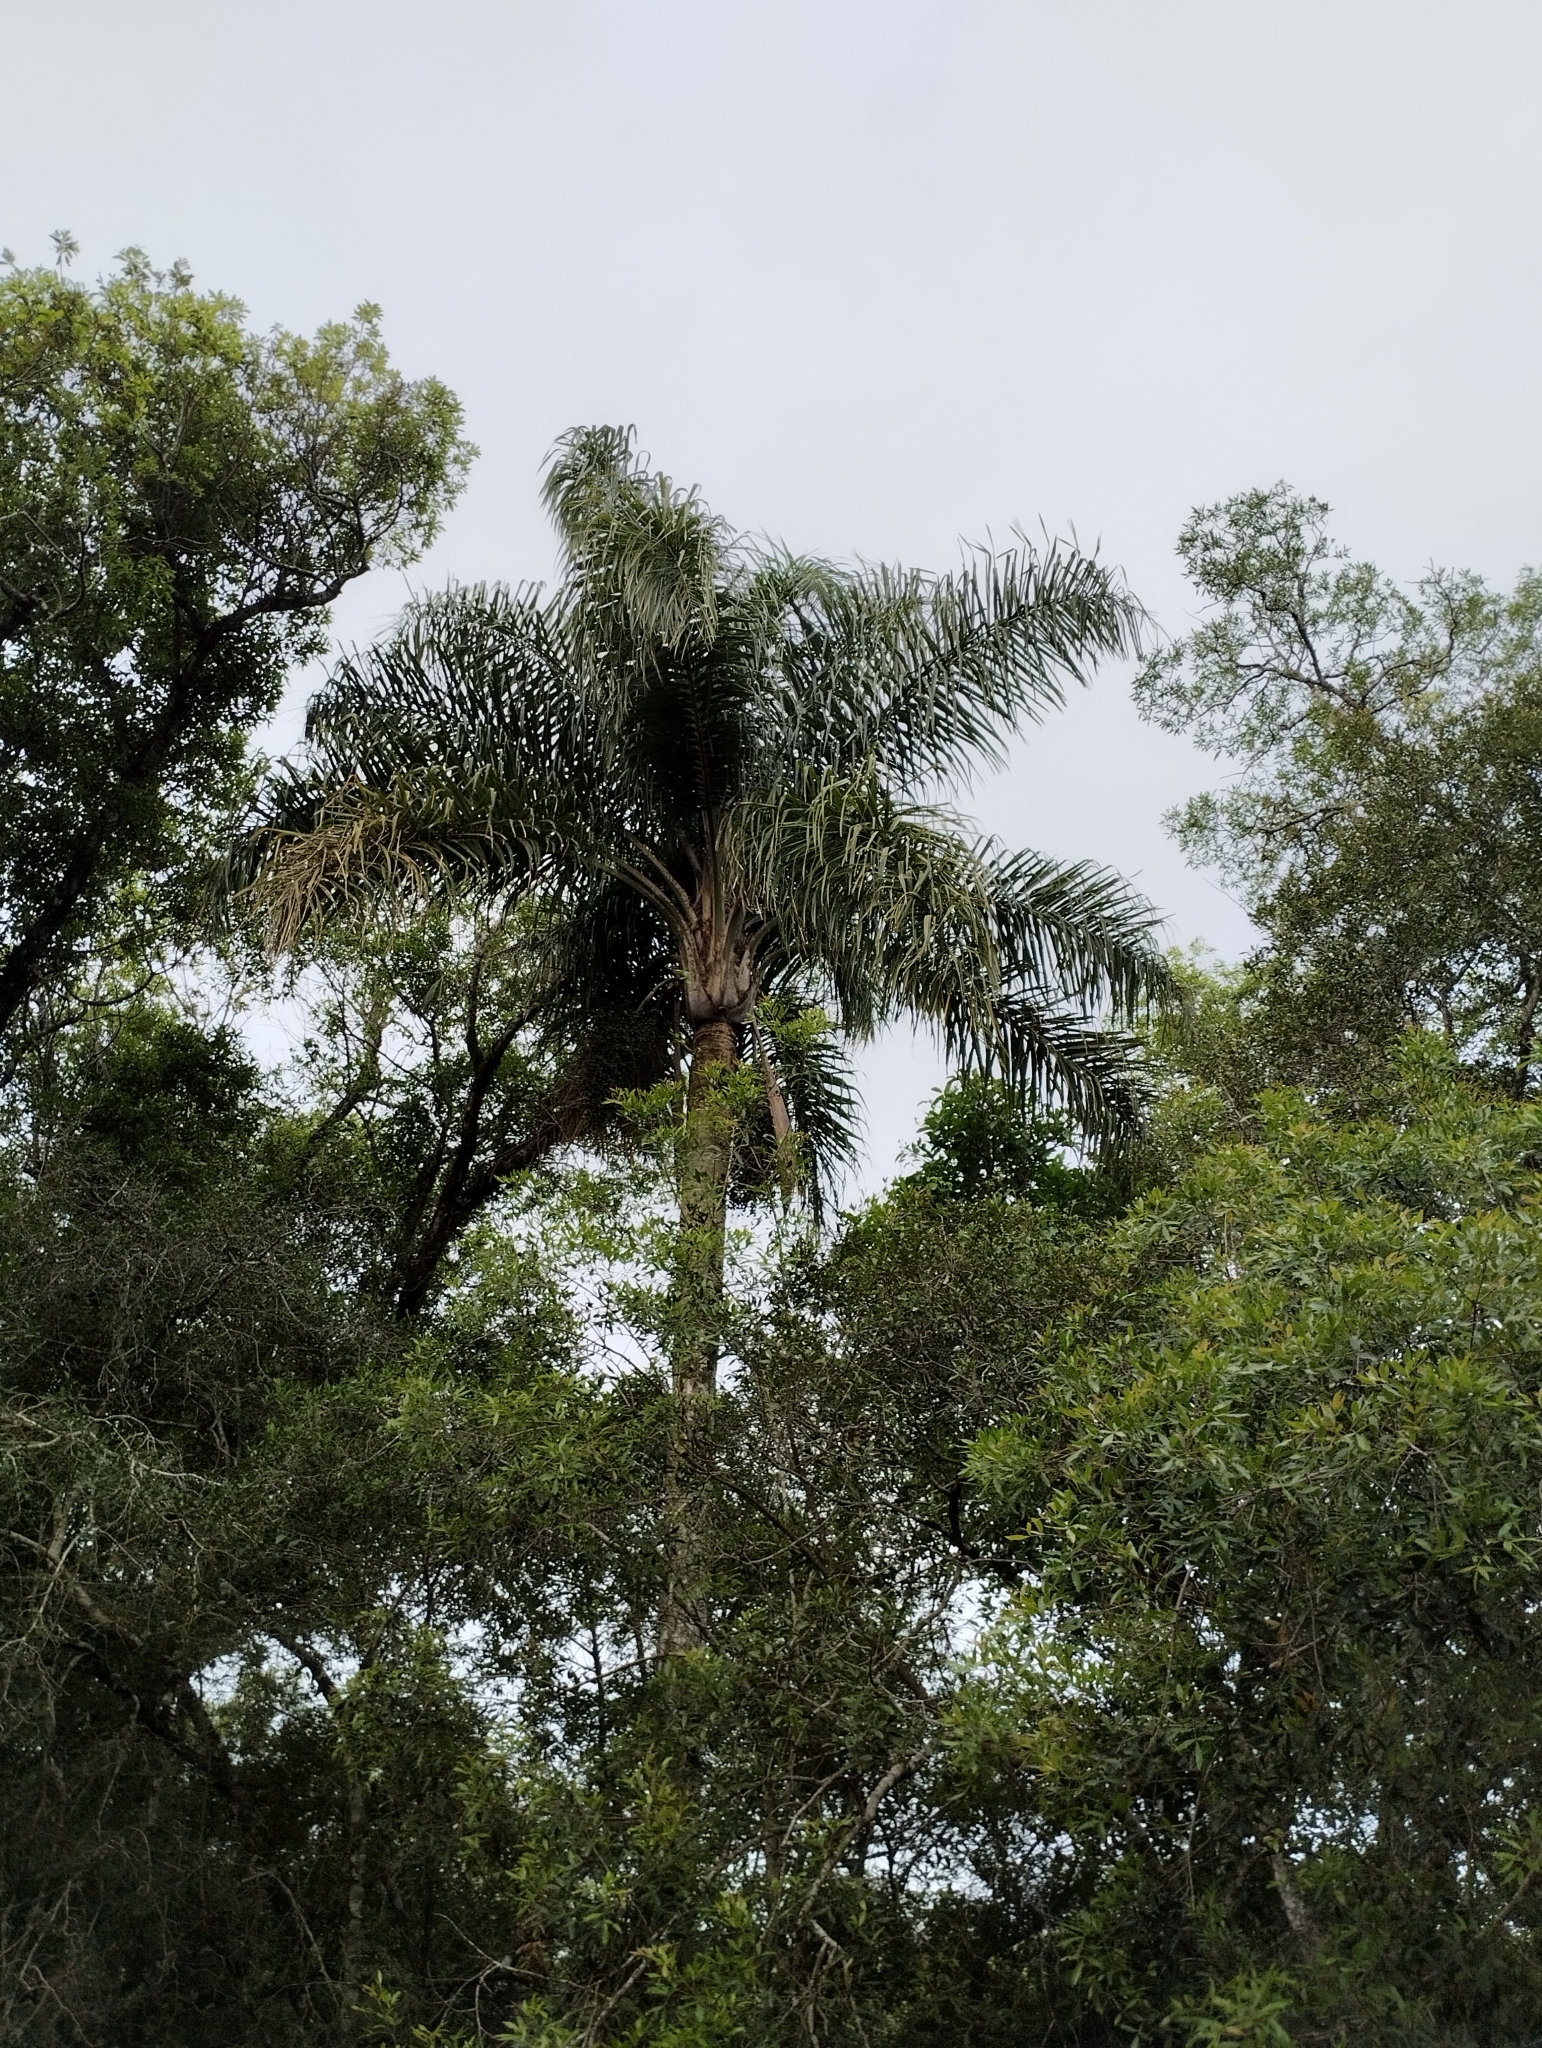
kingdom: Plantae
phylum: Tracheophyta
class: Liliopsida
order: Arecales
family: Arecaceae
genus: Syagrus
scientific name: Syagrus romanzoffiana
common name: Queen palm
